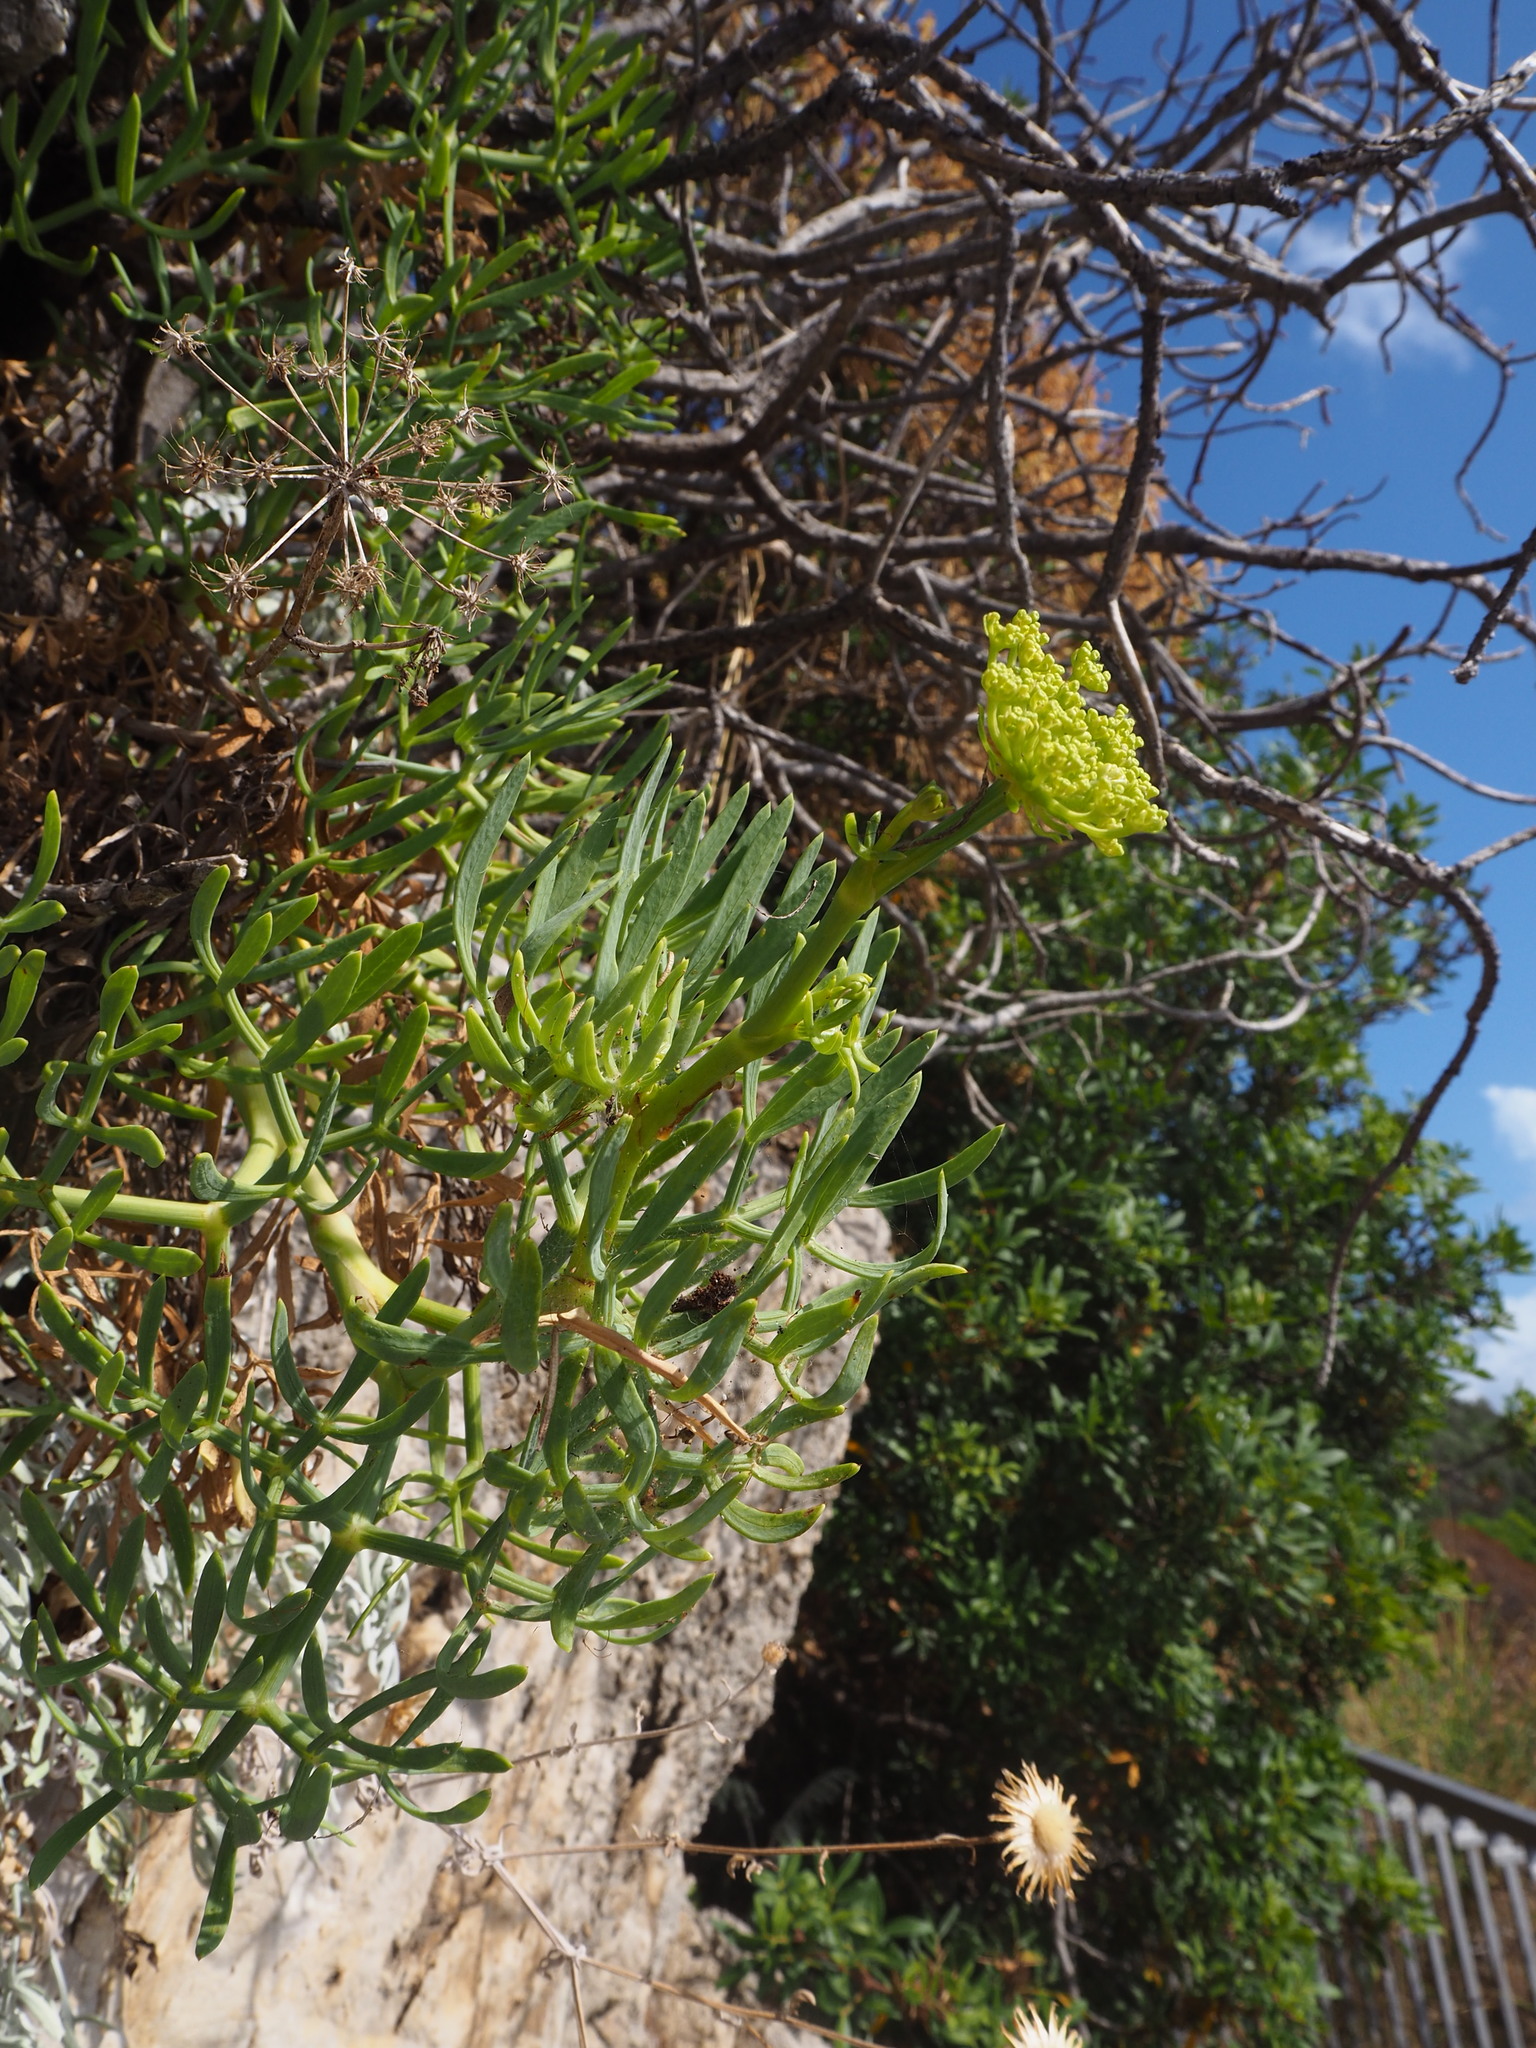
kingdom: Plantae
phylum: Tracheophyta
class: Magnoliopsida
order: Apiales
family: Apiaceae
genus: Crithmum
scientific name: Crithmum maritimum
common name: Rock samphire
